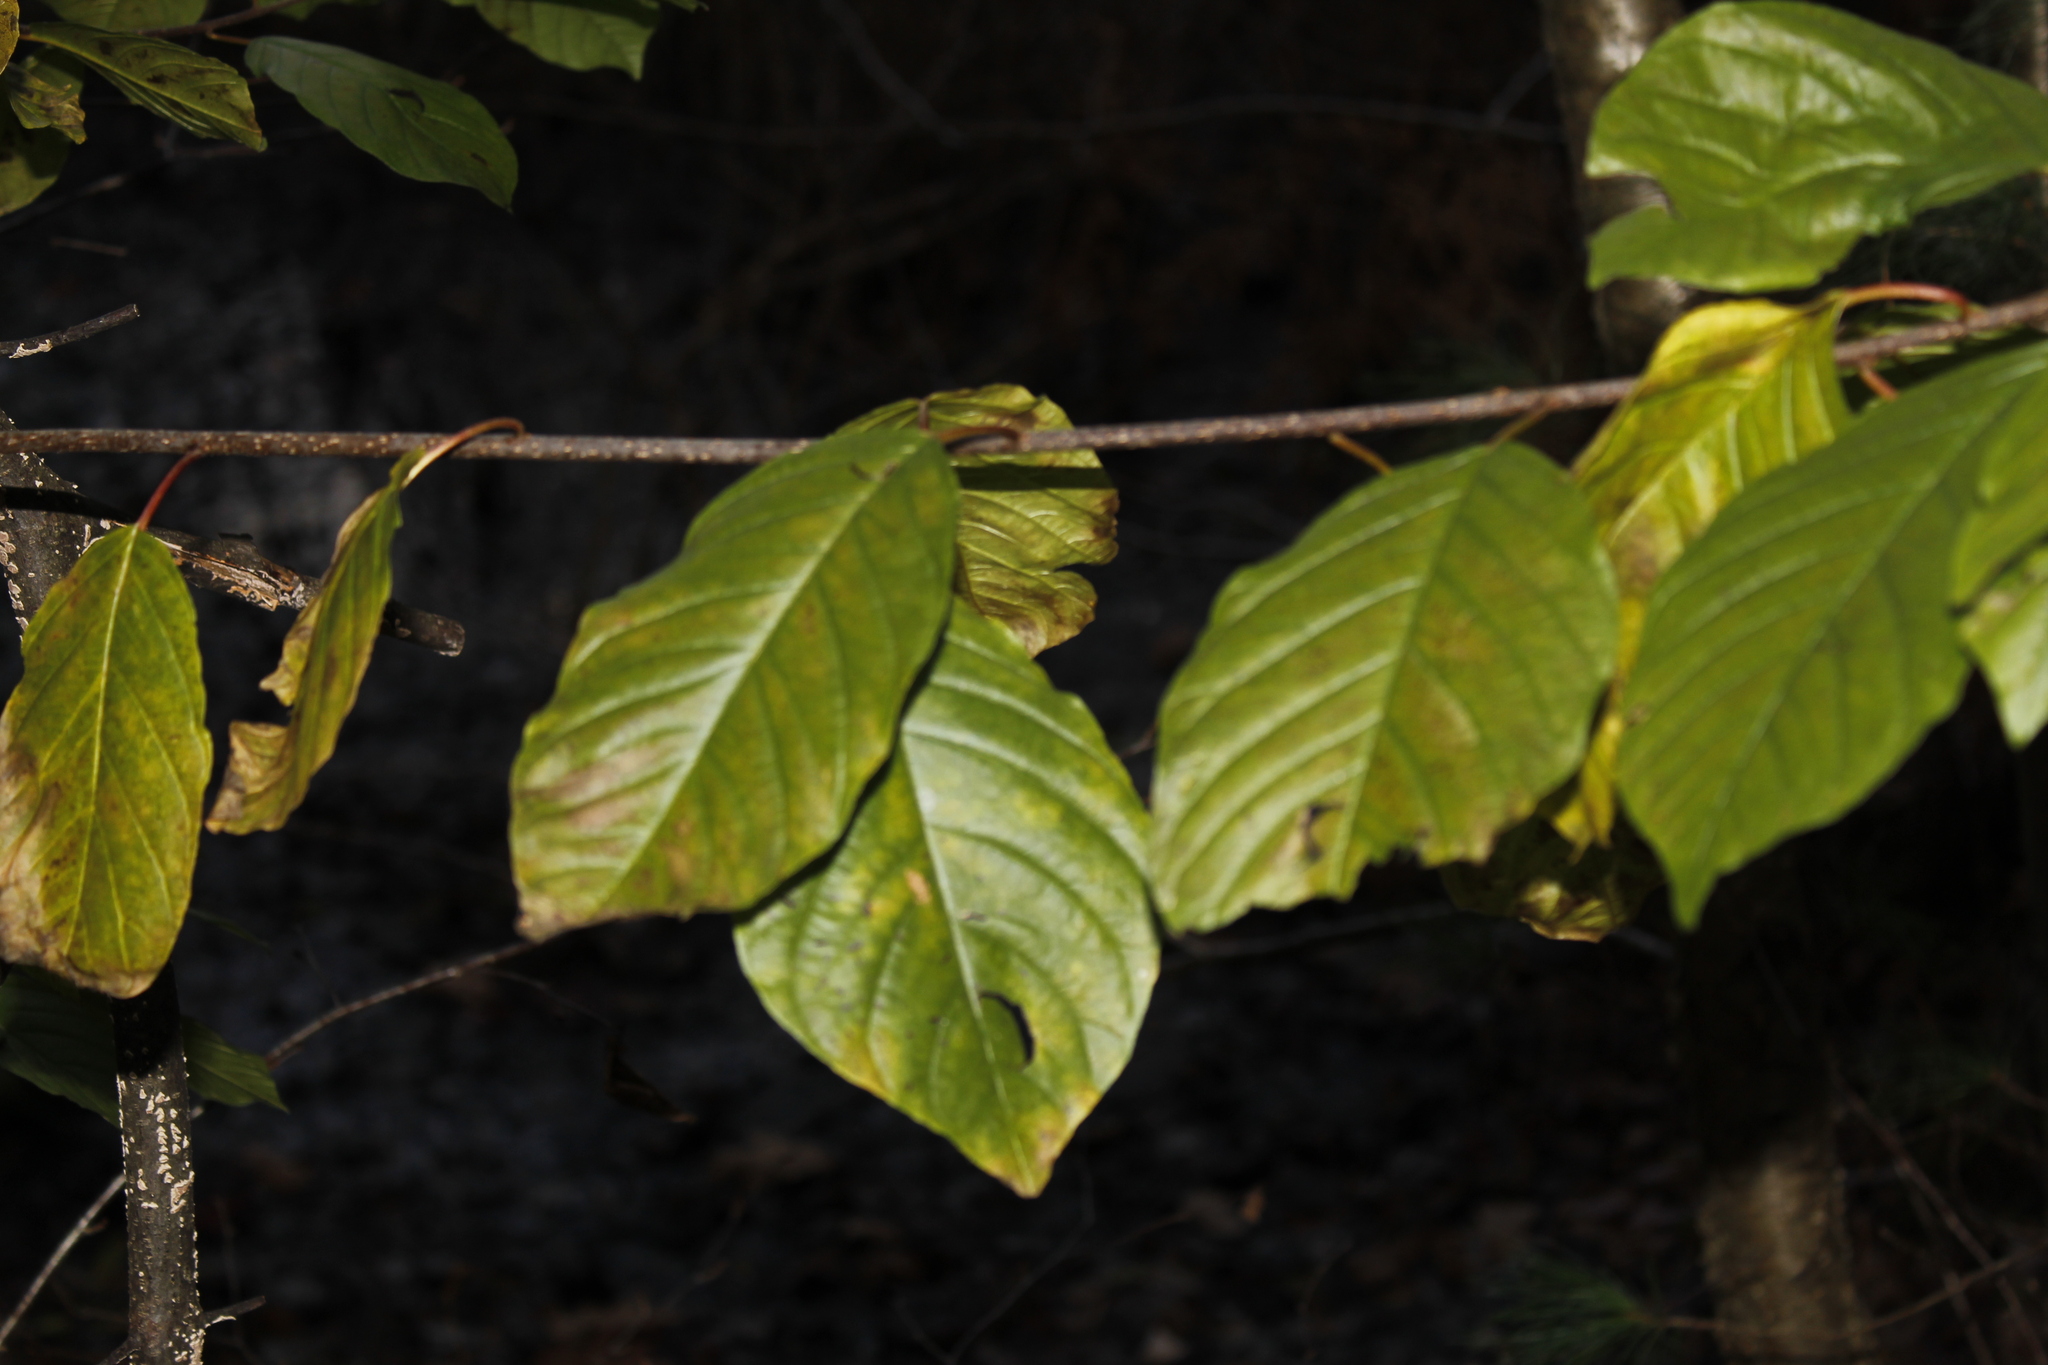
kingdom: Plantae
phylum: Tracheophyta
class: Magnoliopsida
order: Rosales
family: Rhamnaceae
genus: Frangula
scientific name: Frangula alnus
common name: Alder buckthorn
